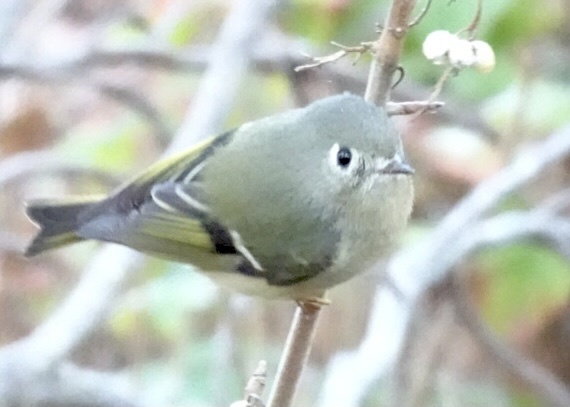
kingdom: Animalia
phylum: Chordata
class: Aves
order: Passeriformes
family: Regulidae
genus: Regulus
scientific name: Regulus calendula
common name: Ruby-crowned kinglet
